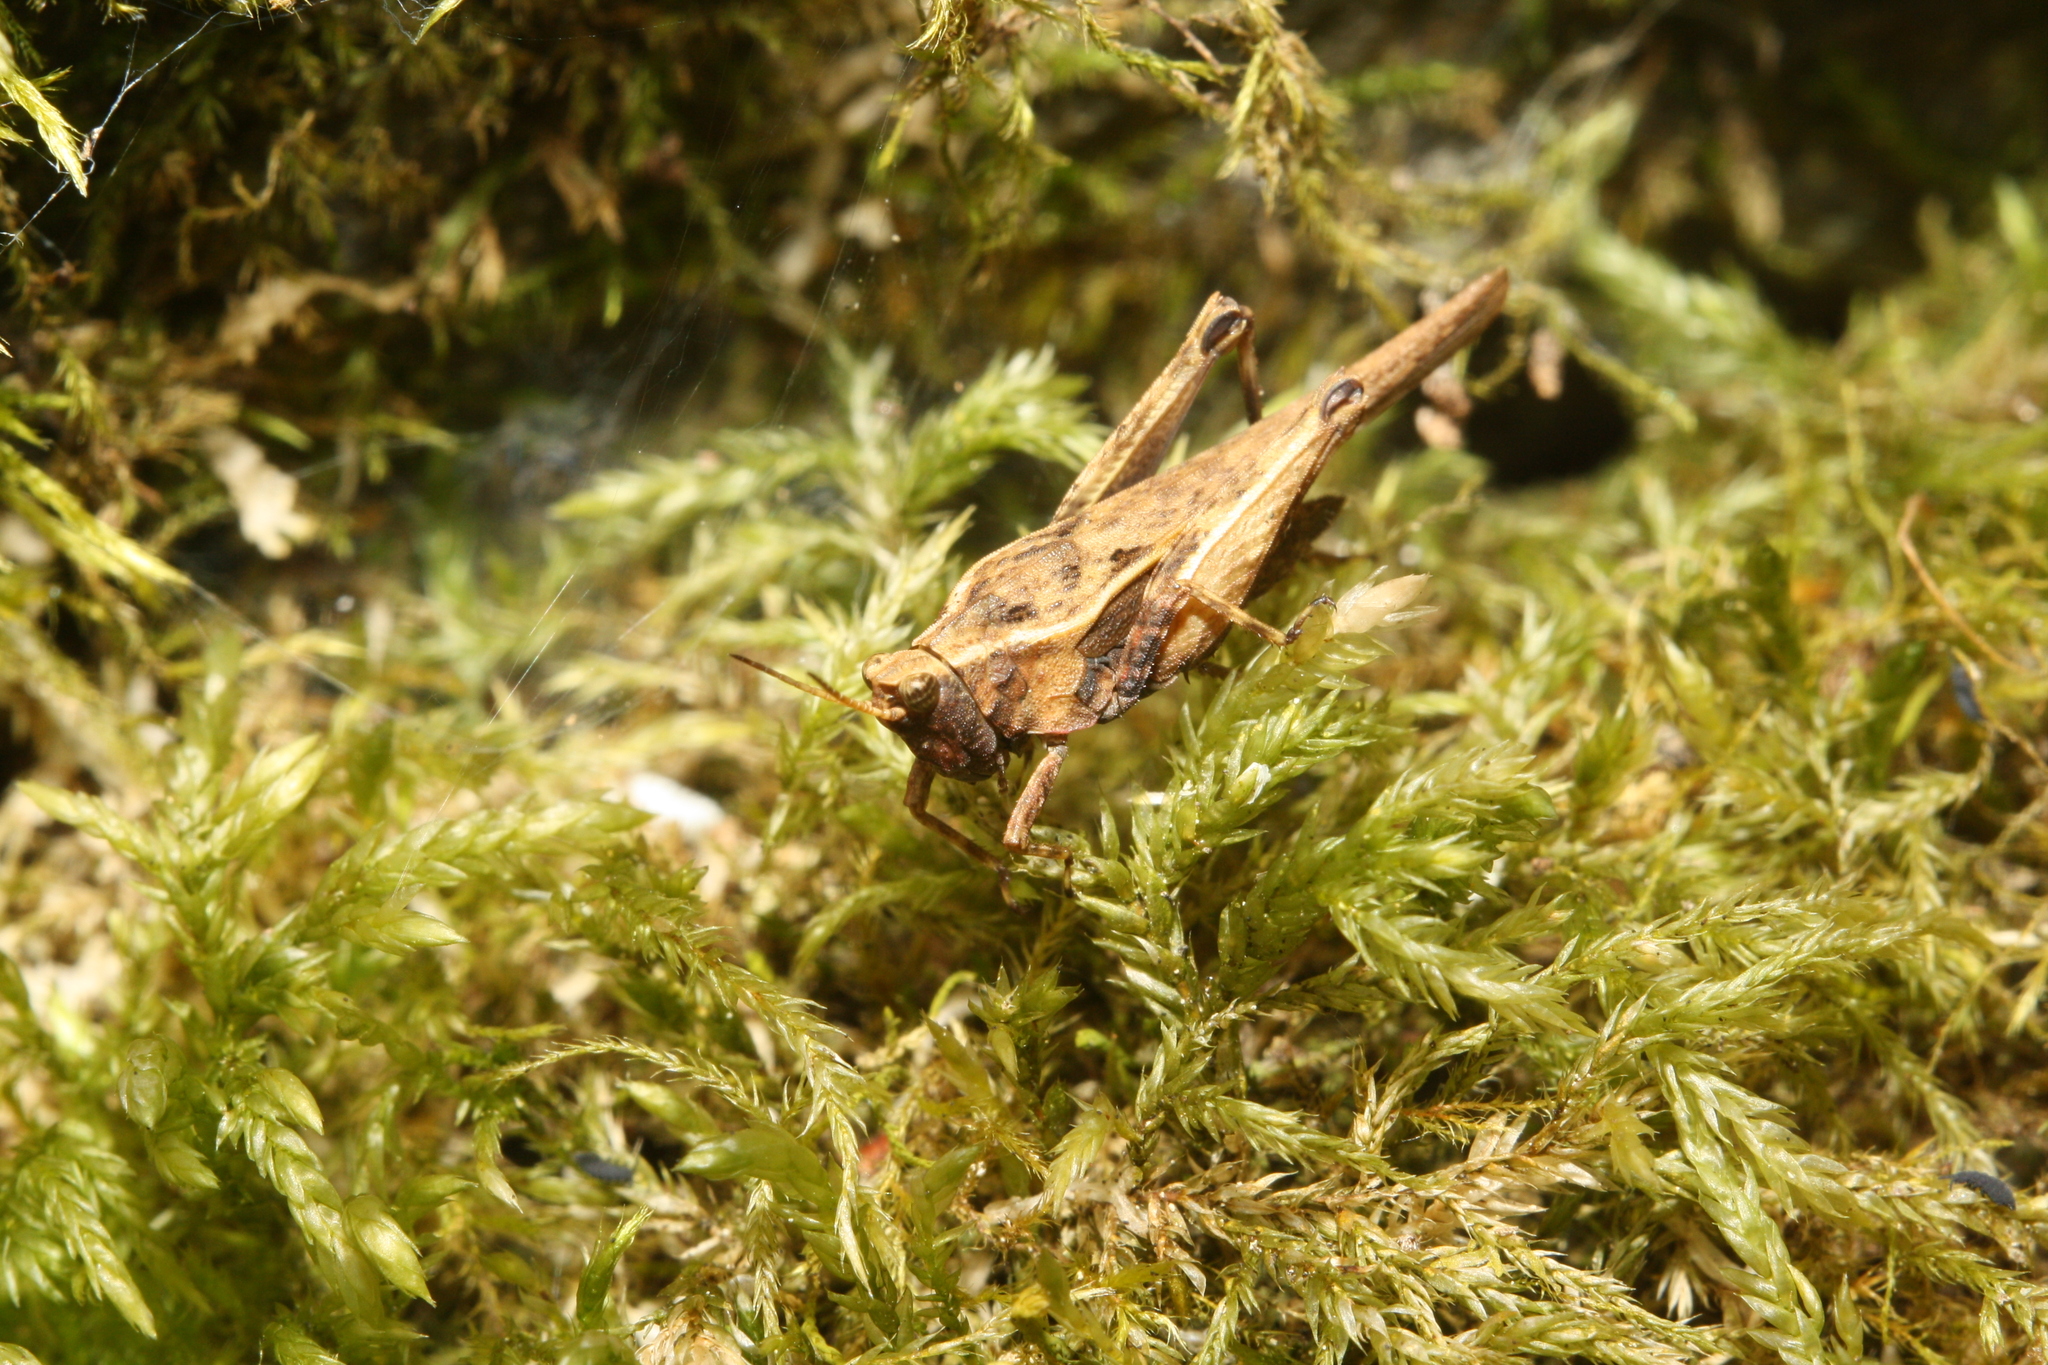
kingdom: Animalia
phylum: Arthropoda
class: Insecta
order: Orthoptera
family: Tetrigidae
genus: Tetrix
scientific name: Tetrix subulata
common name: Slender ground-hopper
